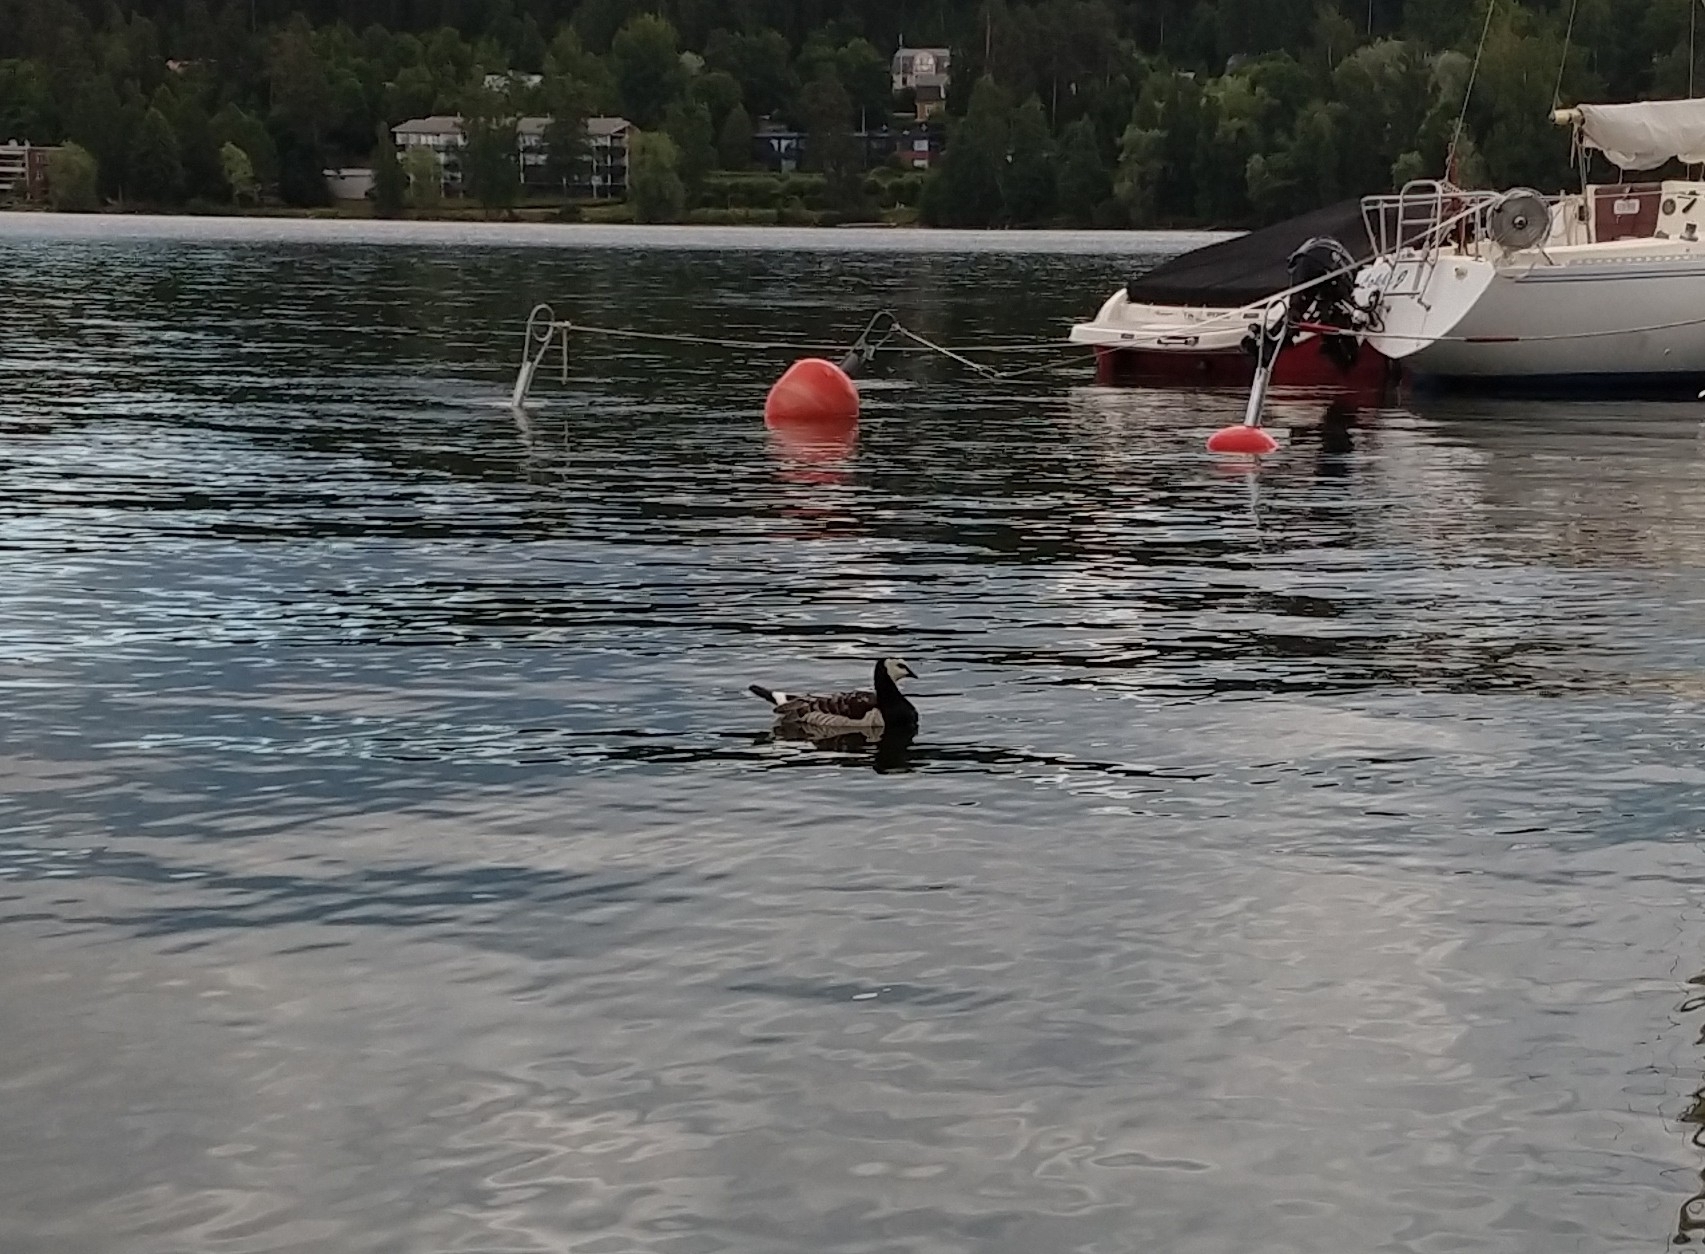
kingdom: Animalia
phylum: Chordata
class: Aves
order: Anseriformes
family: Anatidae
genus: Branta
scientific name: Branta leucopsis
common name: Barnacle goose
